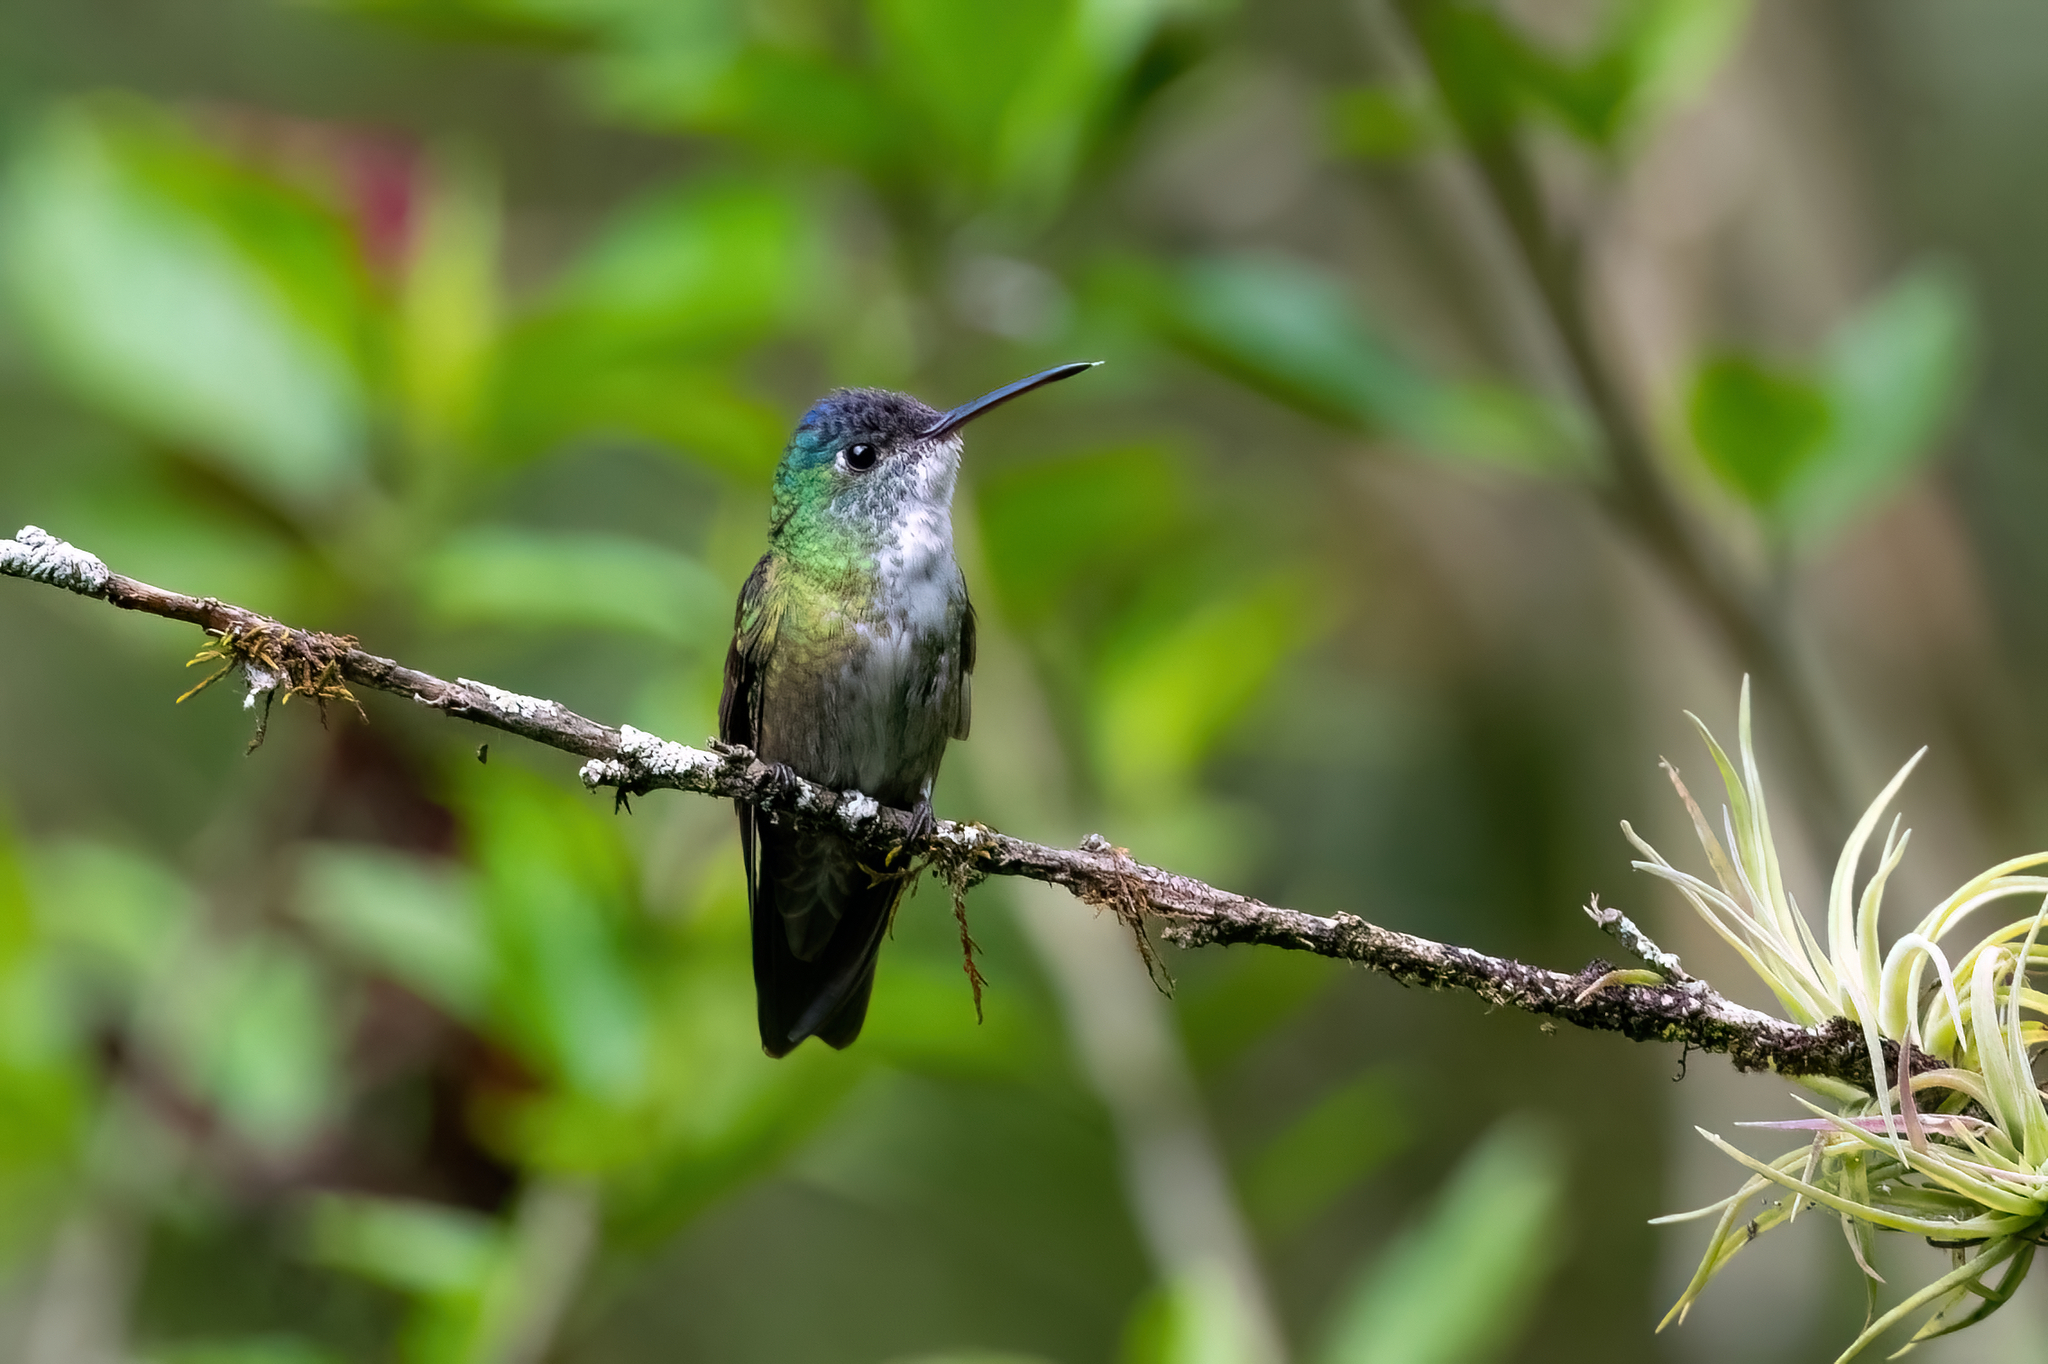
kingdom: Animalia
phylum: Chordata
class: Aves
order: Apodiformes
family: Trochilidae
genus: Saucerottia
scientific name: Saucerottia cyanocephala
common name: Azure-crowned hummingbird
